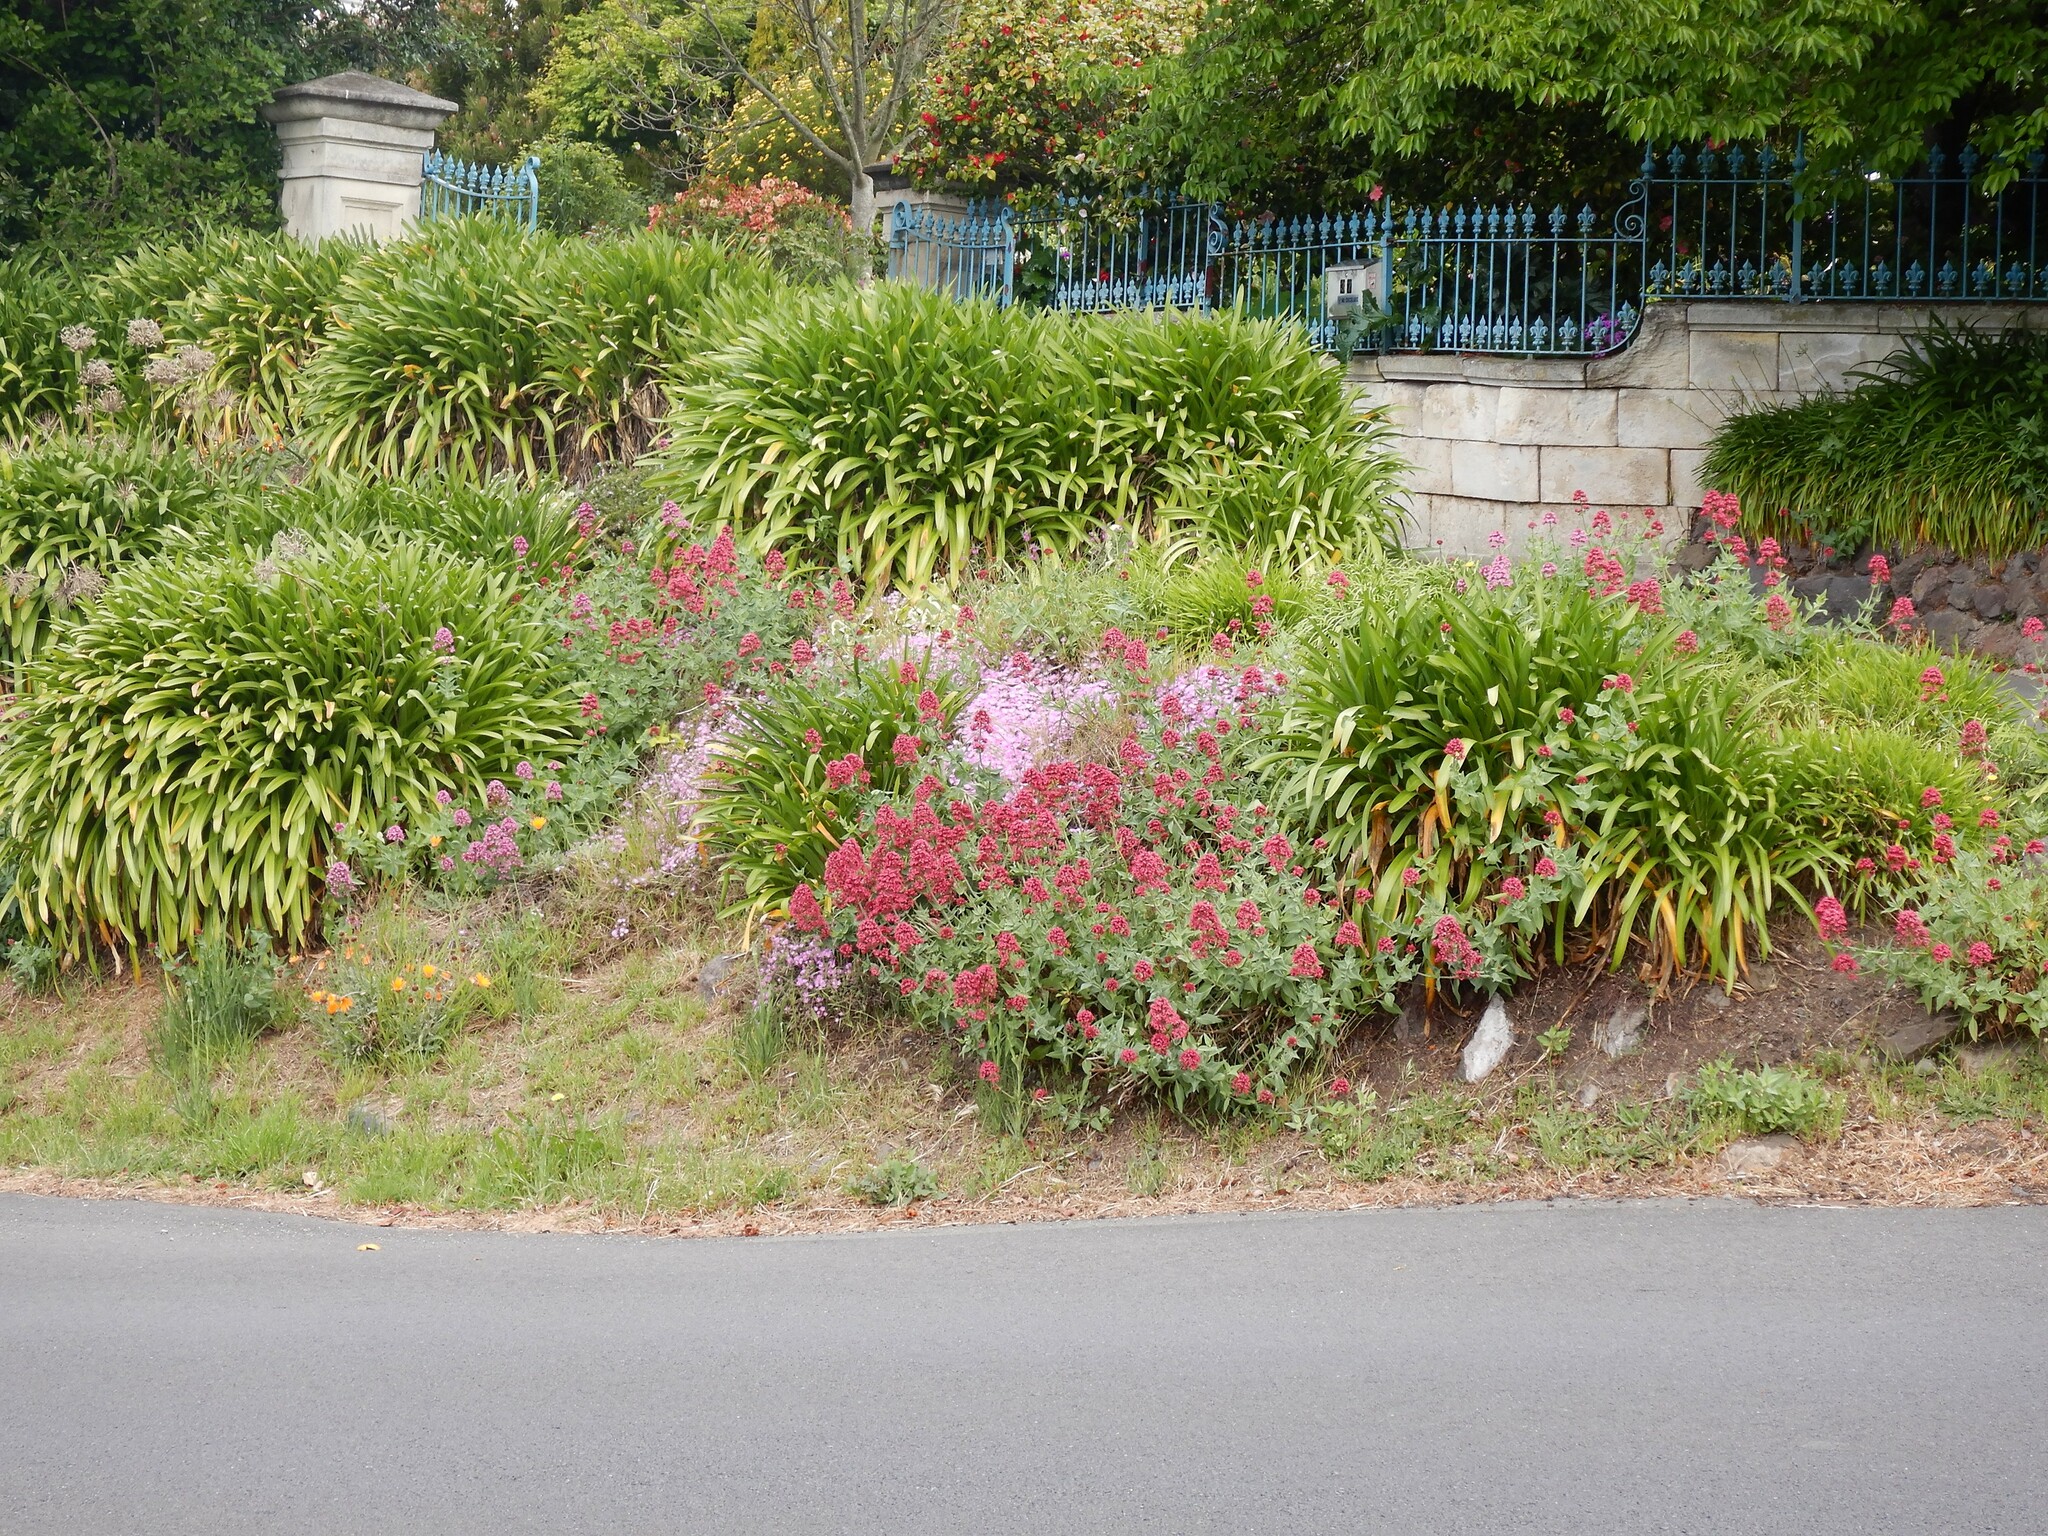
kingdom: Plantae
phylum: Tracheophyta
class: Magnoliopsida
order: Dipsacales
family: Caprifoliaceae
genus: Centranthus
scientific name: Centranthus ruber
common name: Red valerian
